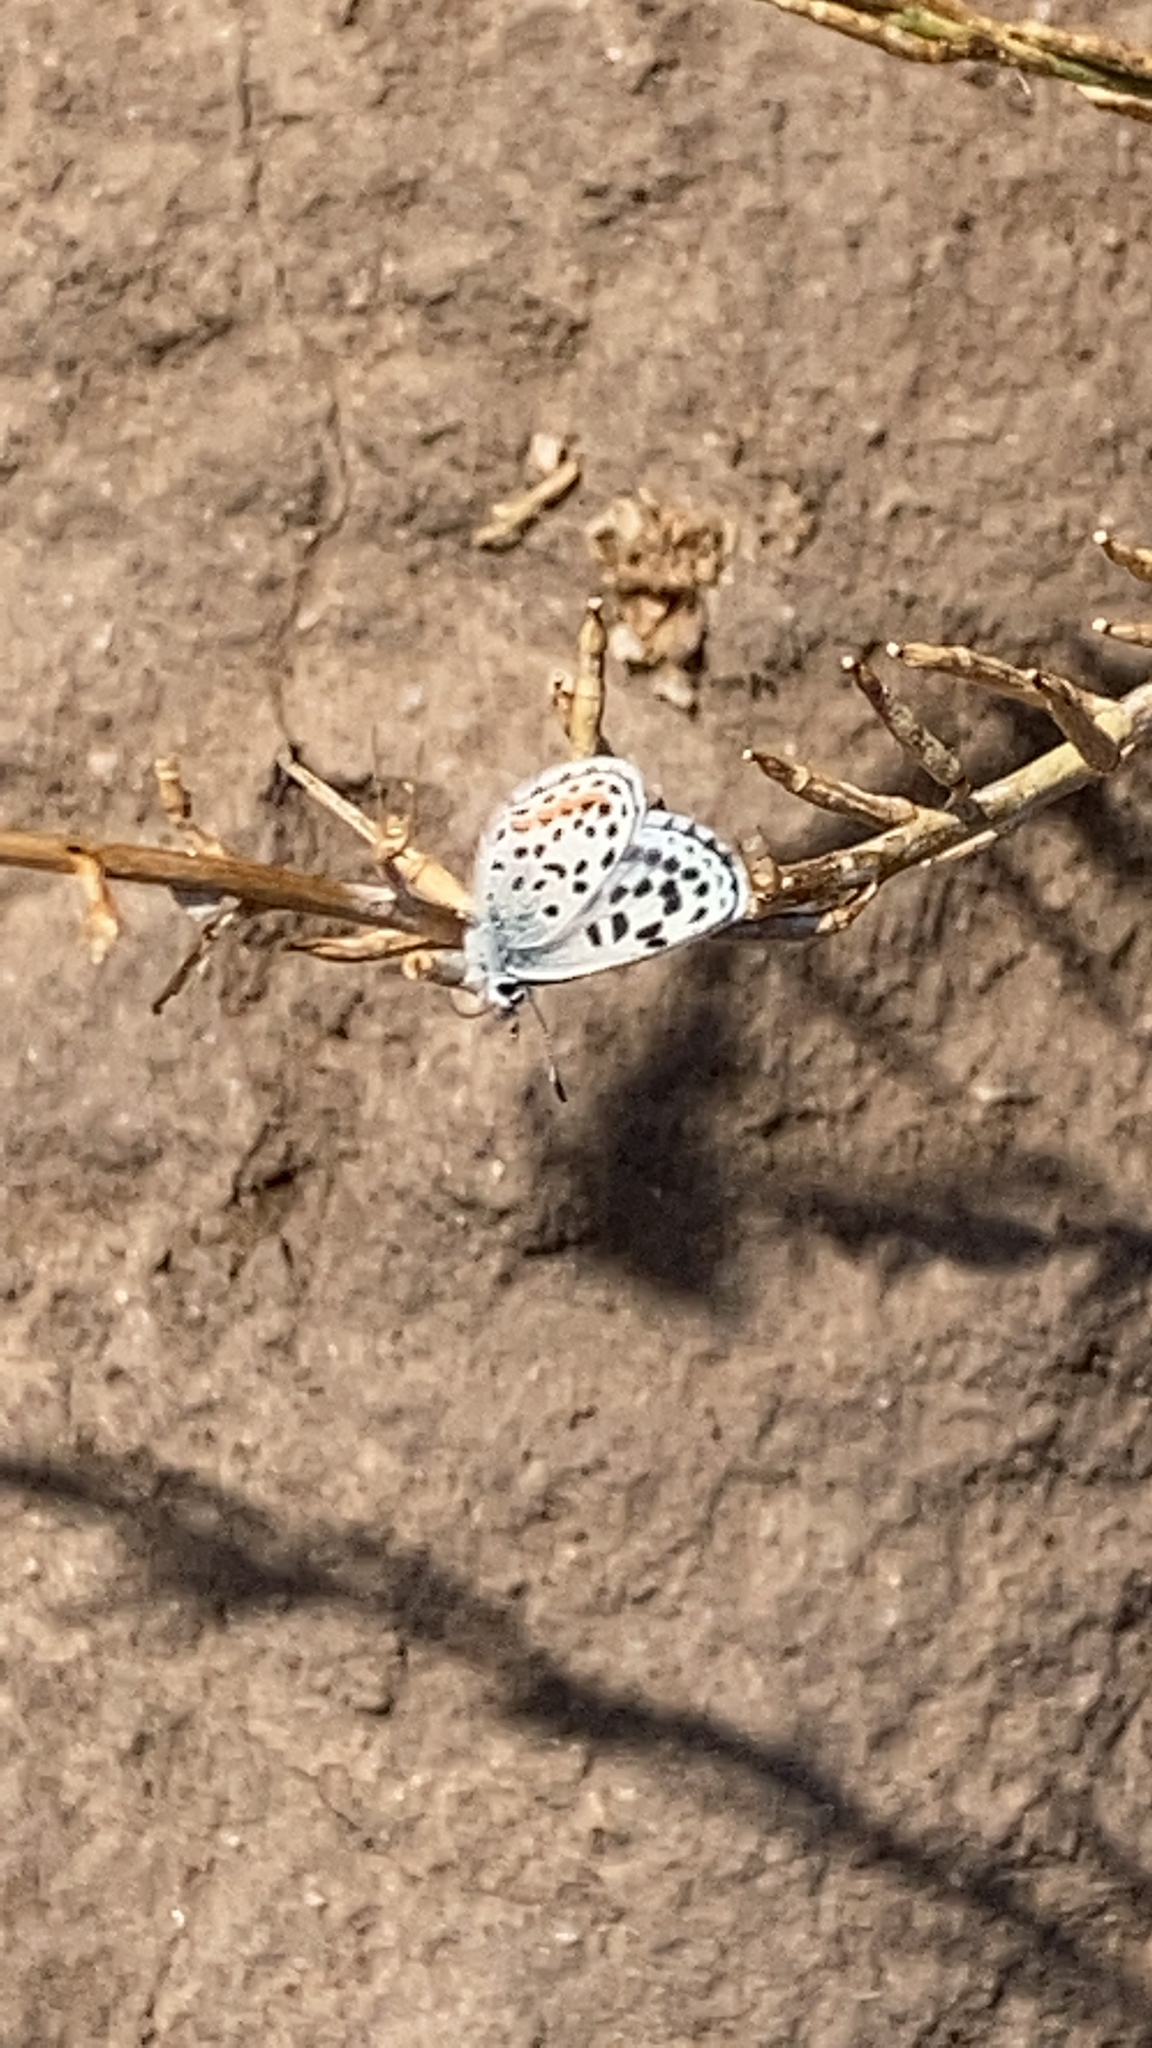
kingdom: Animalia
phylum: Arthropoda
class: Insecta
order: Lepidoptera
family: Lycaenidae
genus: Philotes
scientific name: Philotes bernardino
